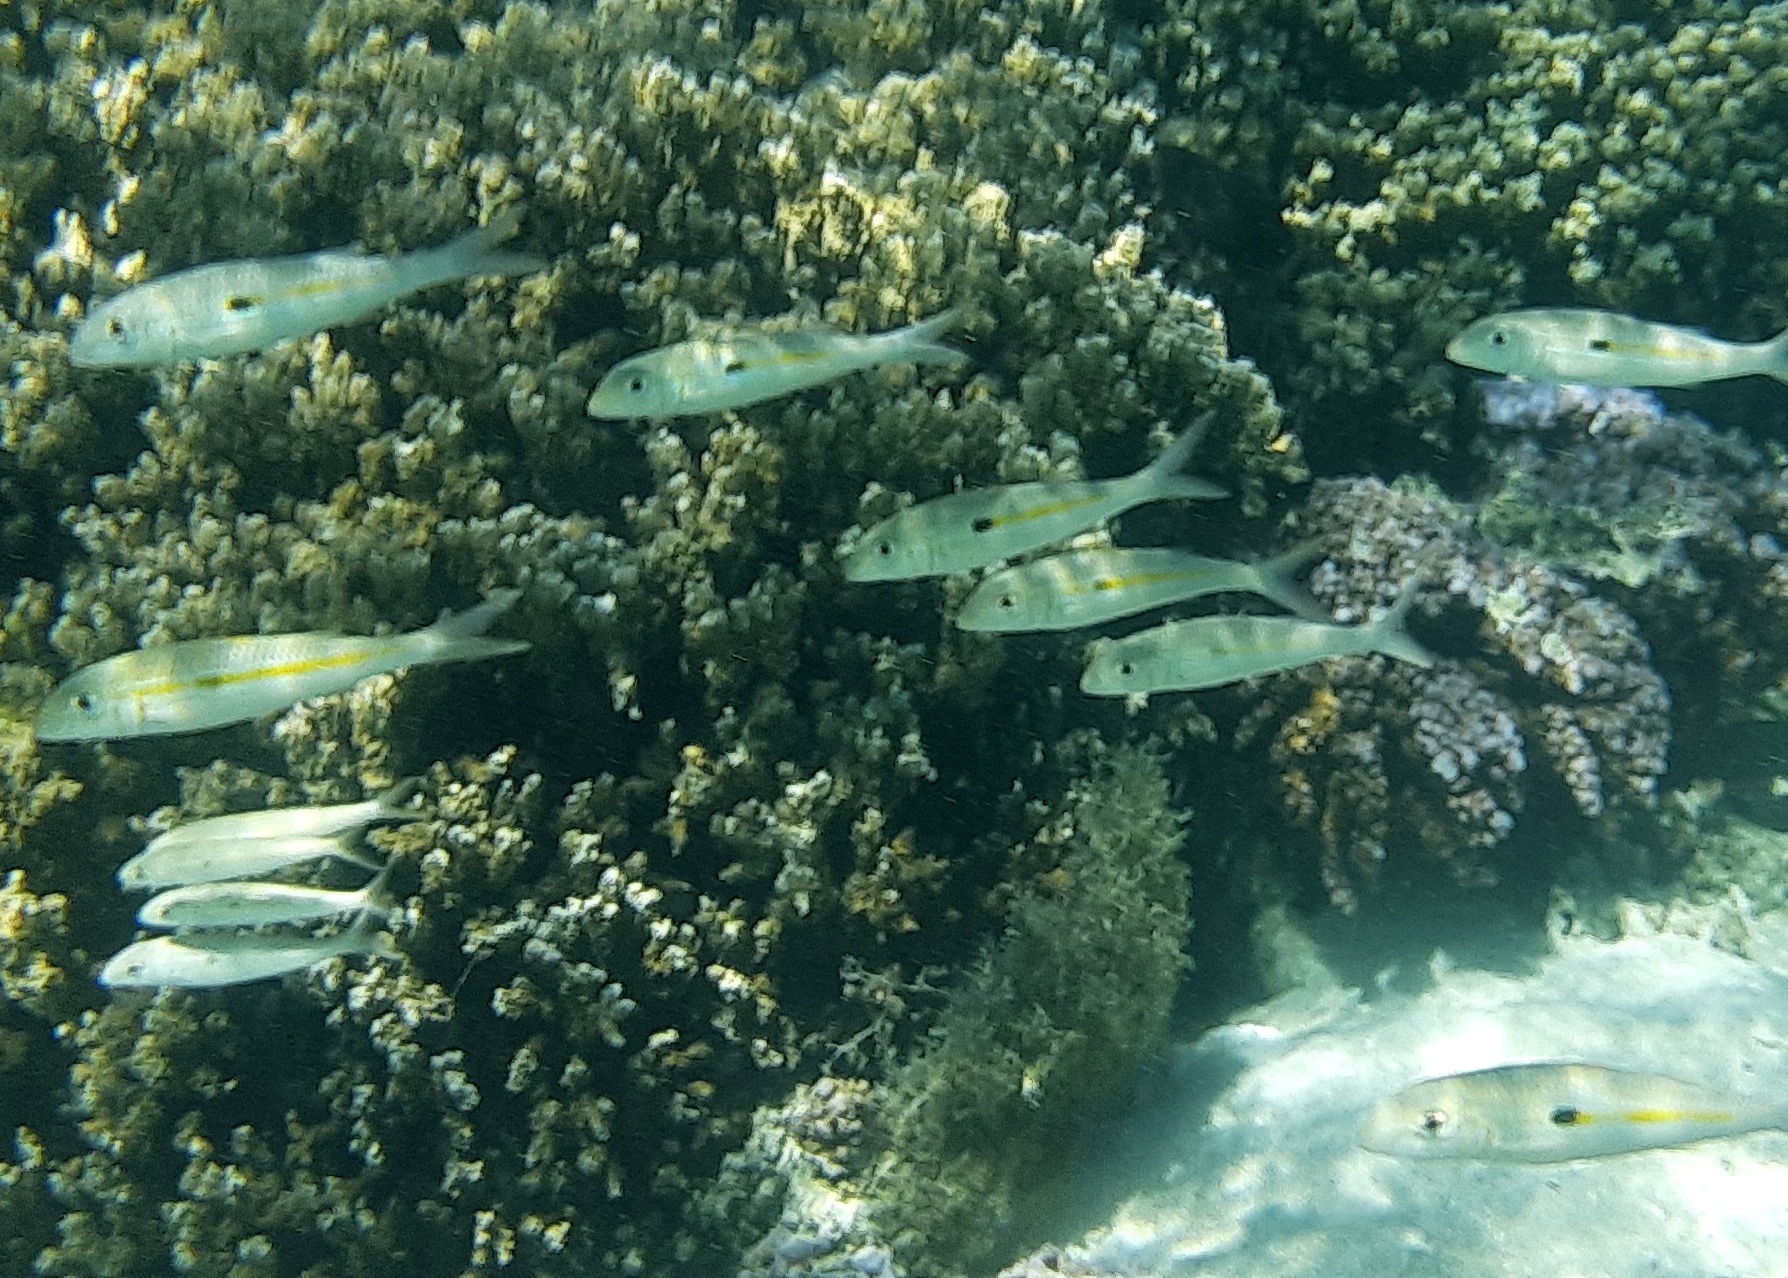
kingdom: Animalia
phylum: Chordata
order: Perciformes
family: Mullidae
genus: Mulloidichthys
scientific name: Mulloidichthys flavolineatus
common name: Yellowstripe goatfish
